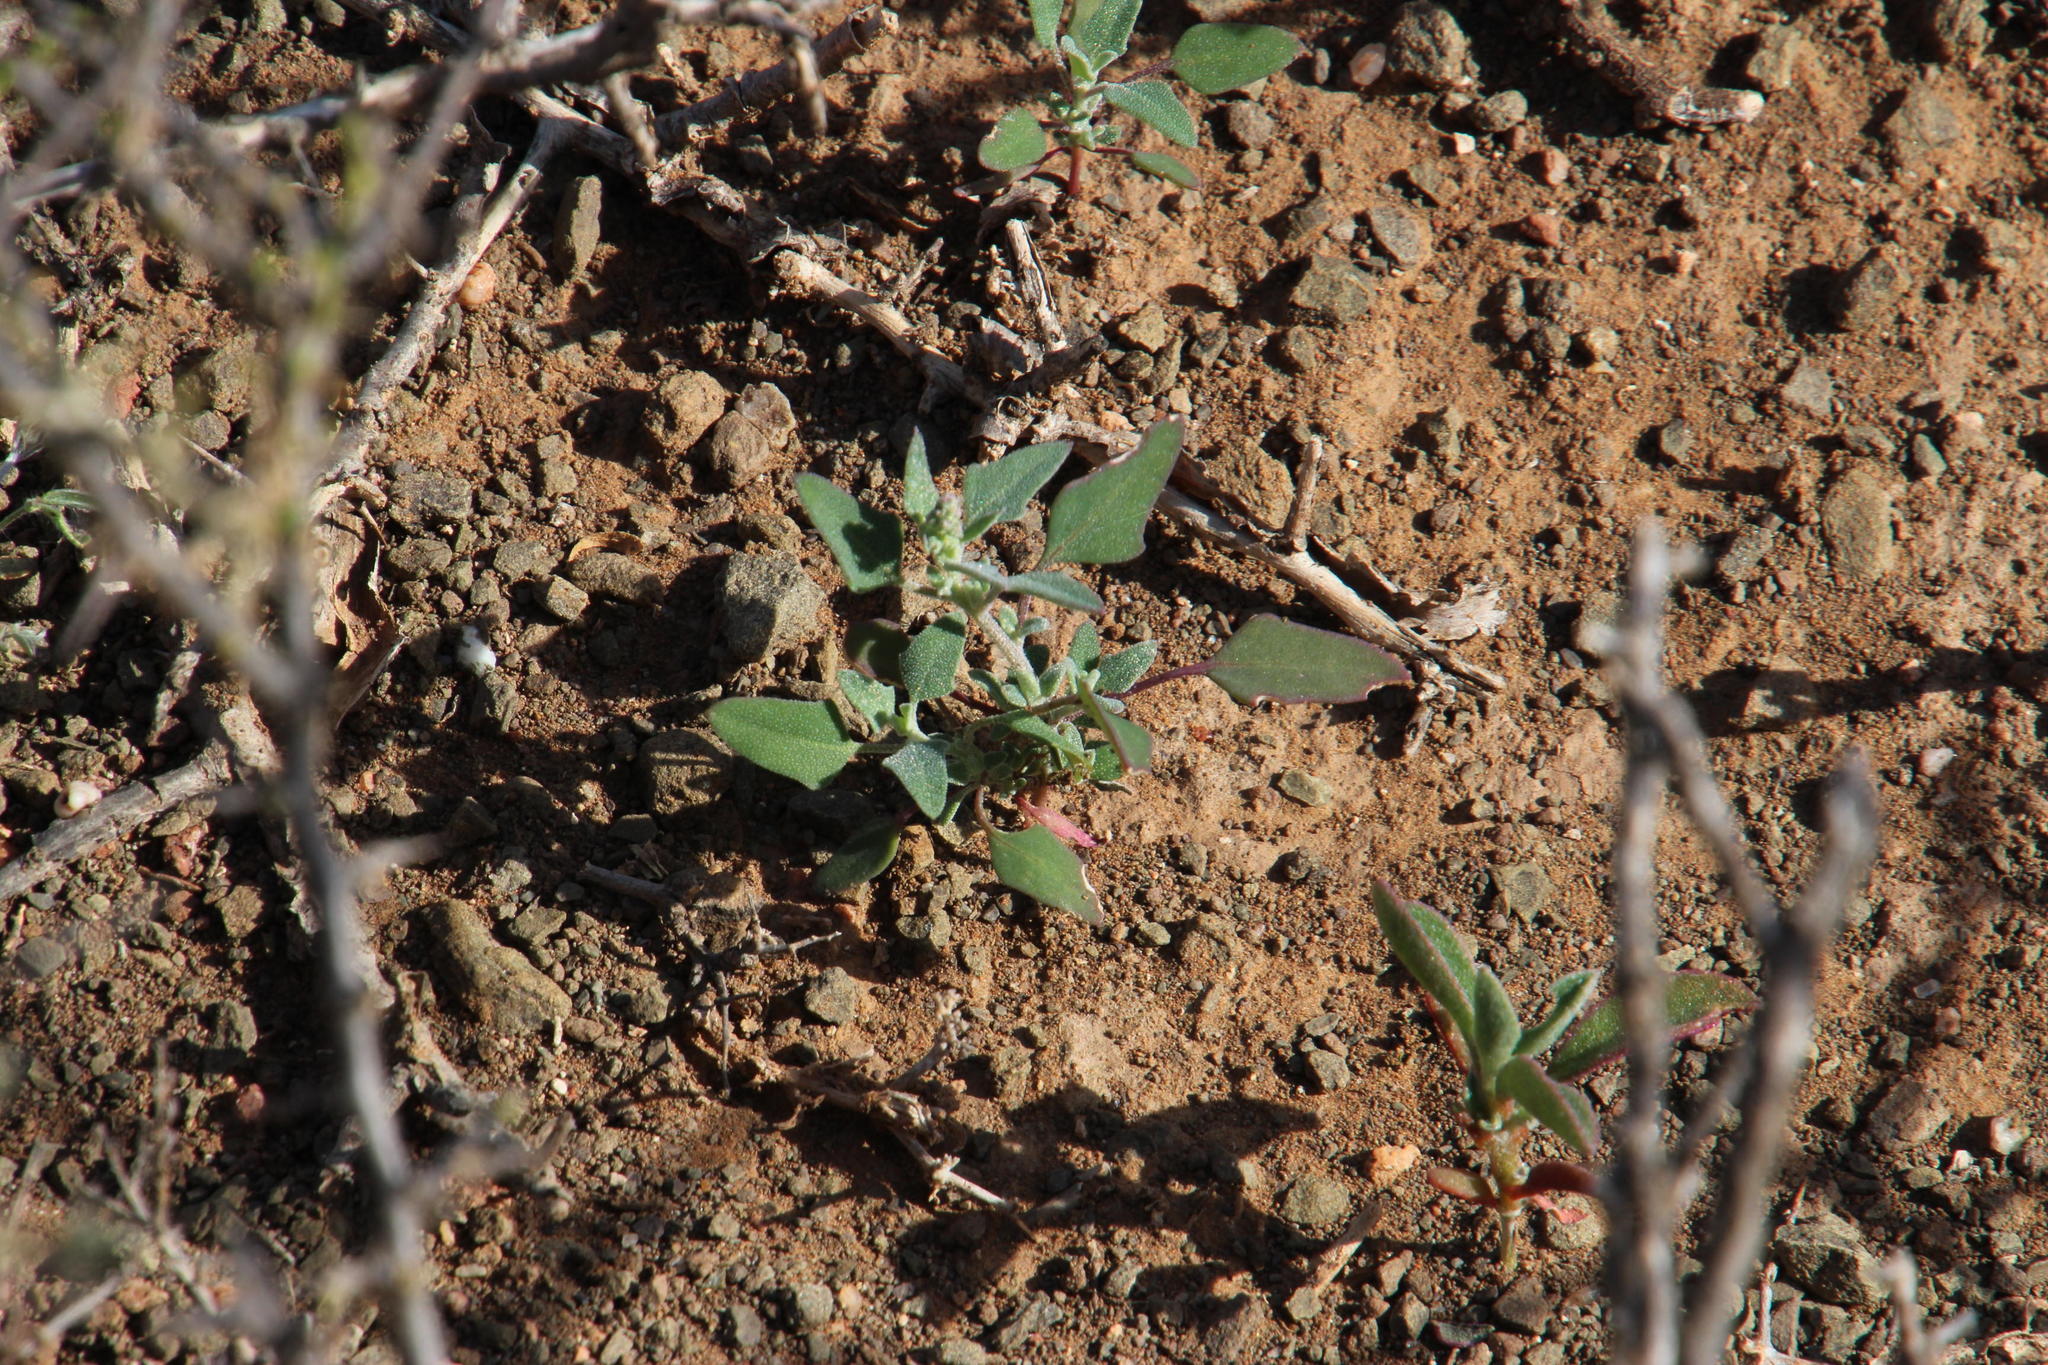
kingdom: Plantae
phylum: Tracheophyta
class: Magnoliopsida
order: Caryophyllales
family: Amaranthaceae
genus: Chenopodium
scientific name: Chenopodium phillipsianum
